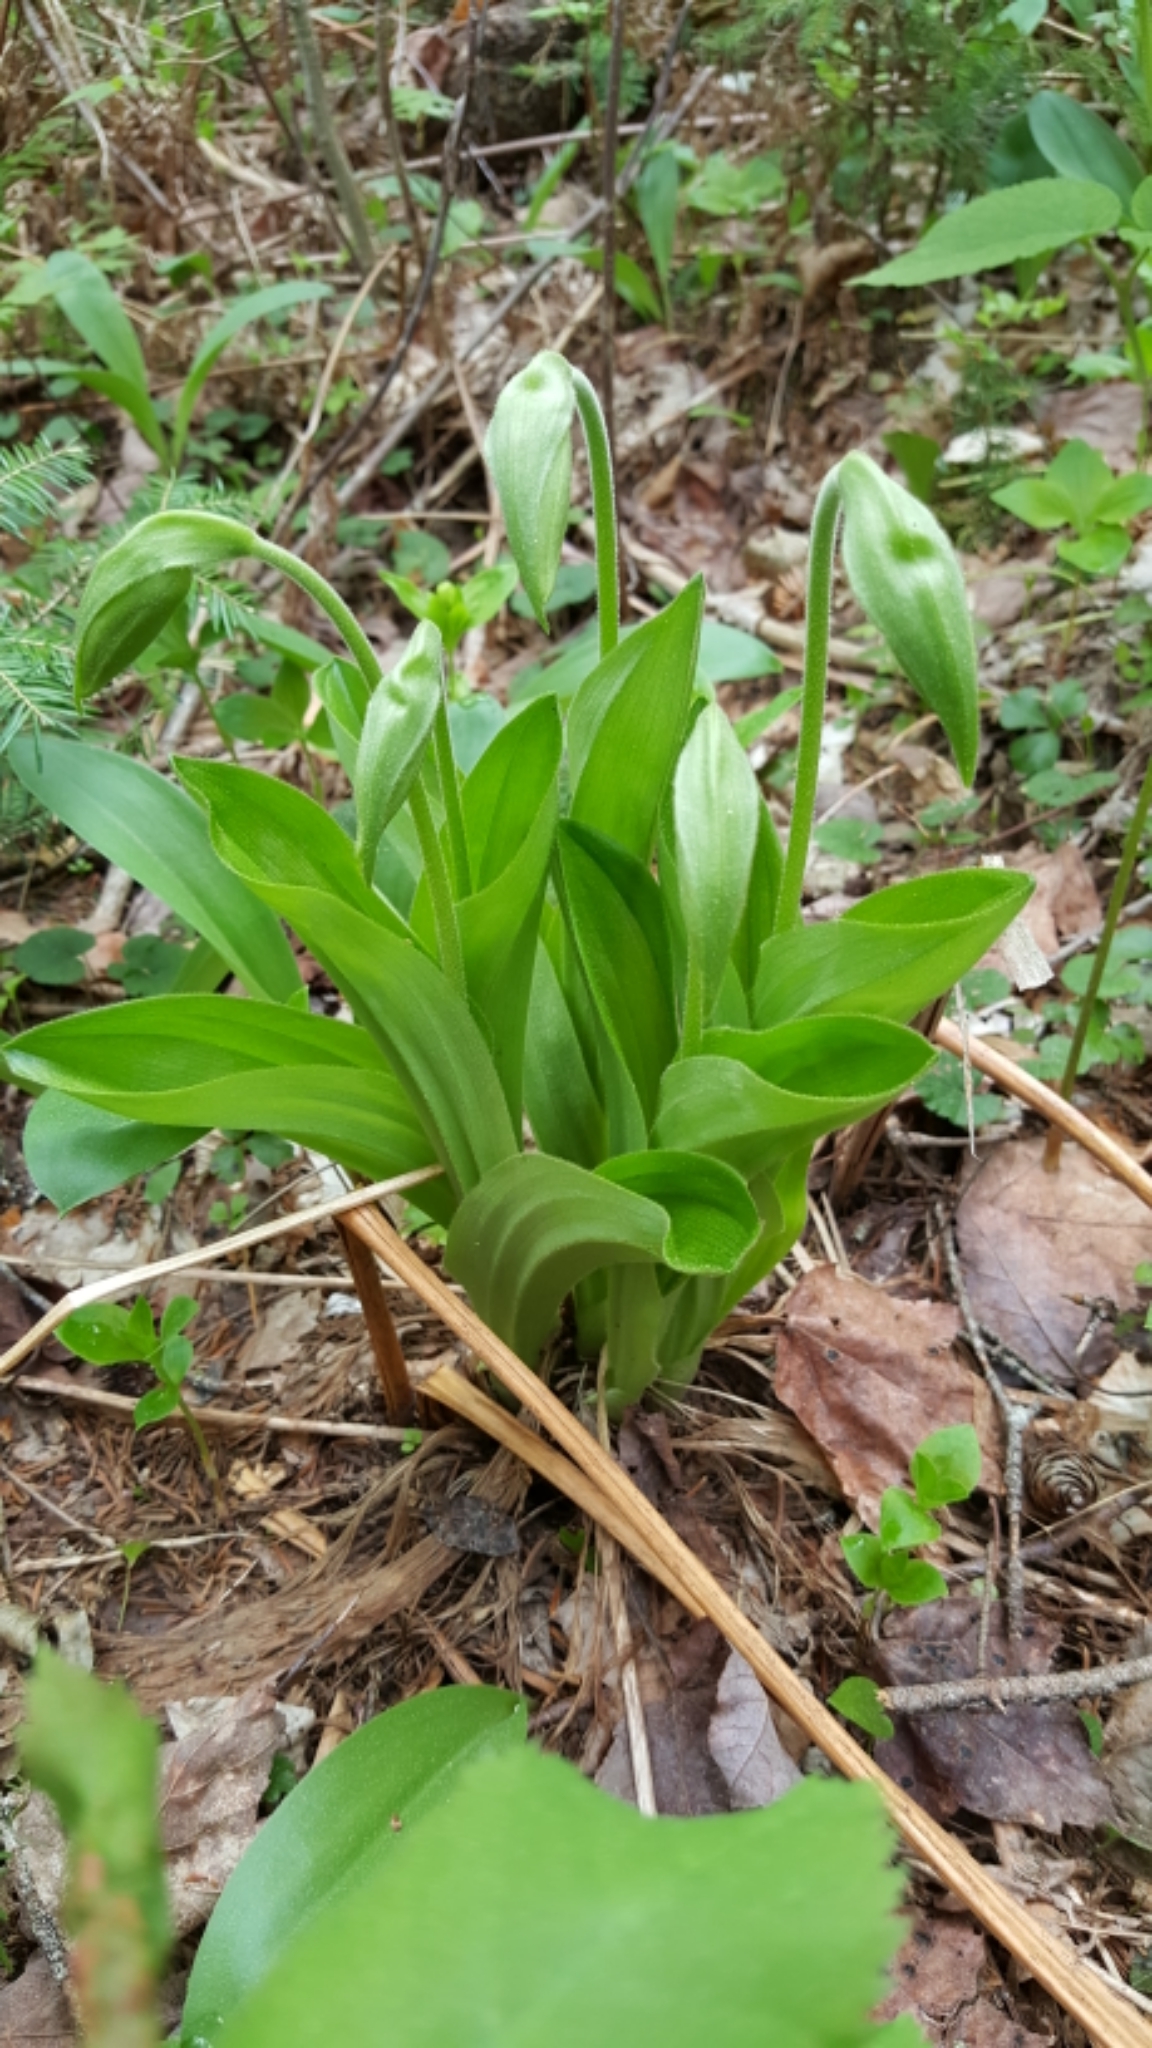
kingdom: Plantae
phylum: Tracheophyta
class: Liliopsida
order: Asparagales
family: Orchidaceae
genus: Cypripedium
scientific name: Cypripedium acaule
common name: Pink lady's-slipper
